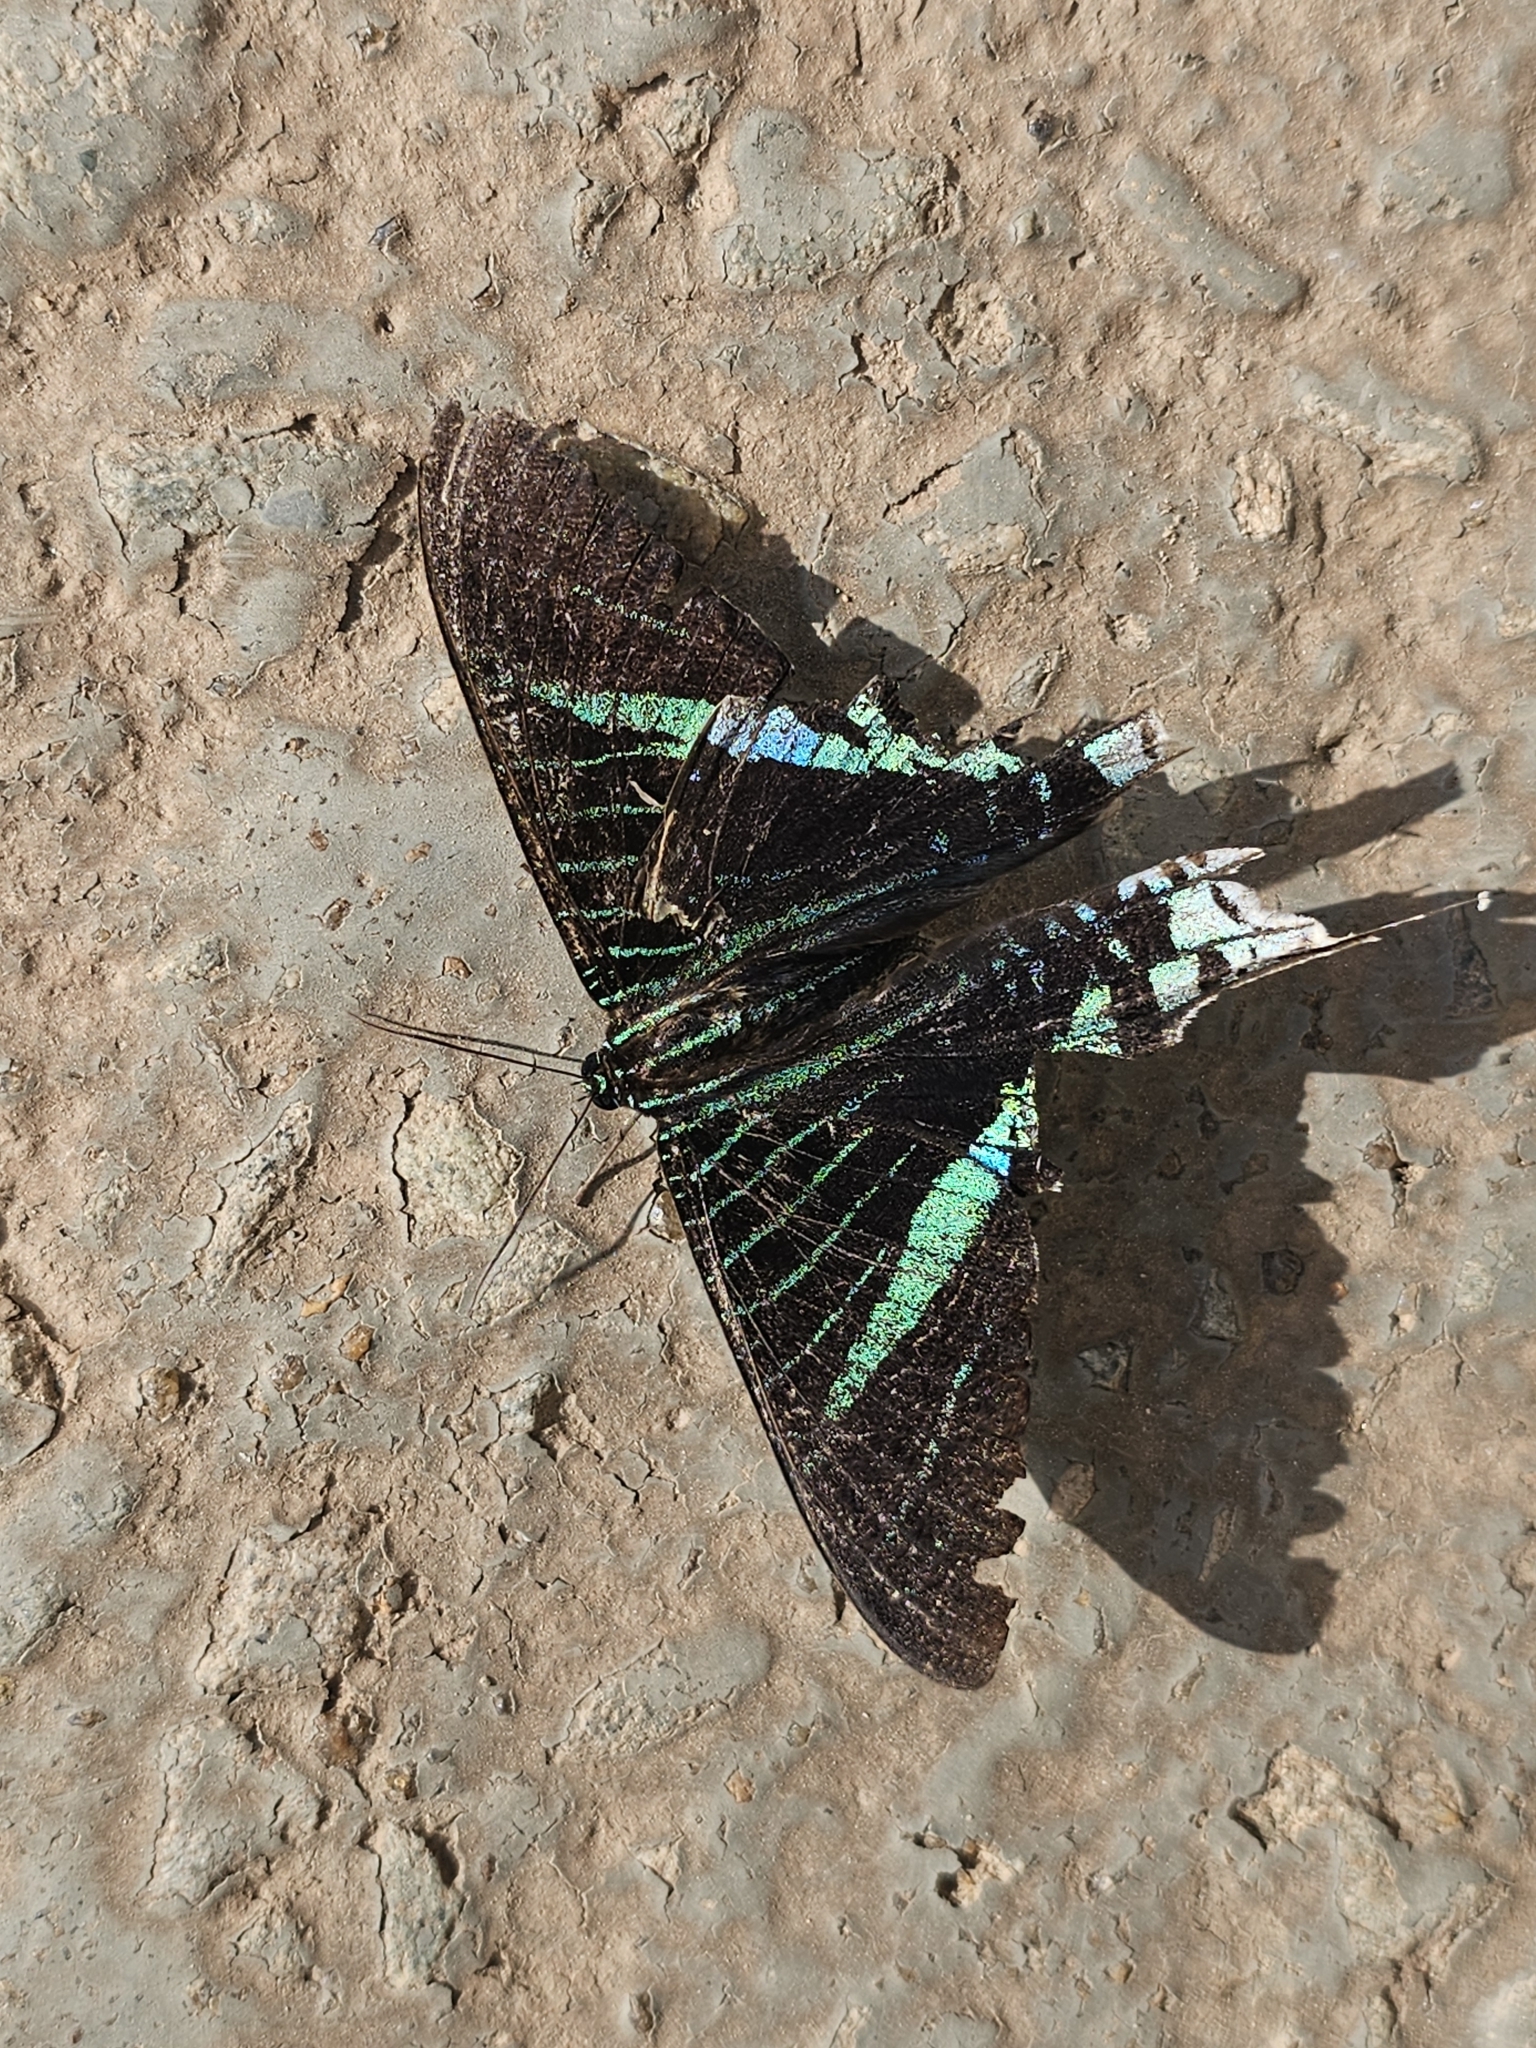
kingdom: Animalia
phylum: Arthropoda
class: Insecta
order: Lepidoptera
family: Uraniidae
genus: Urania
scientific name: Urania leilus
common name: Peacock moth
